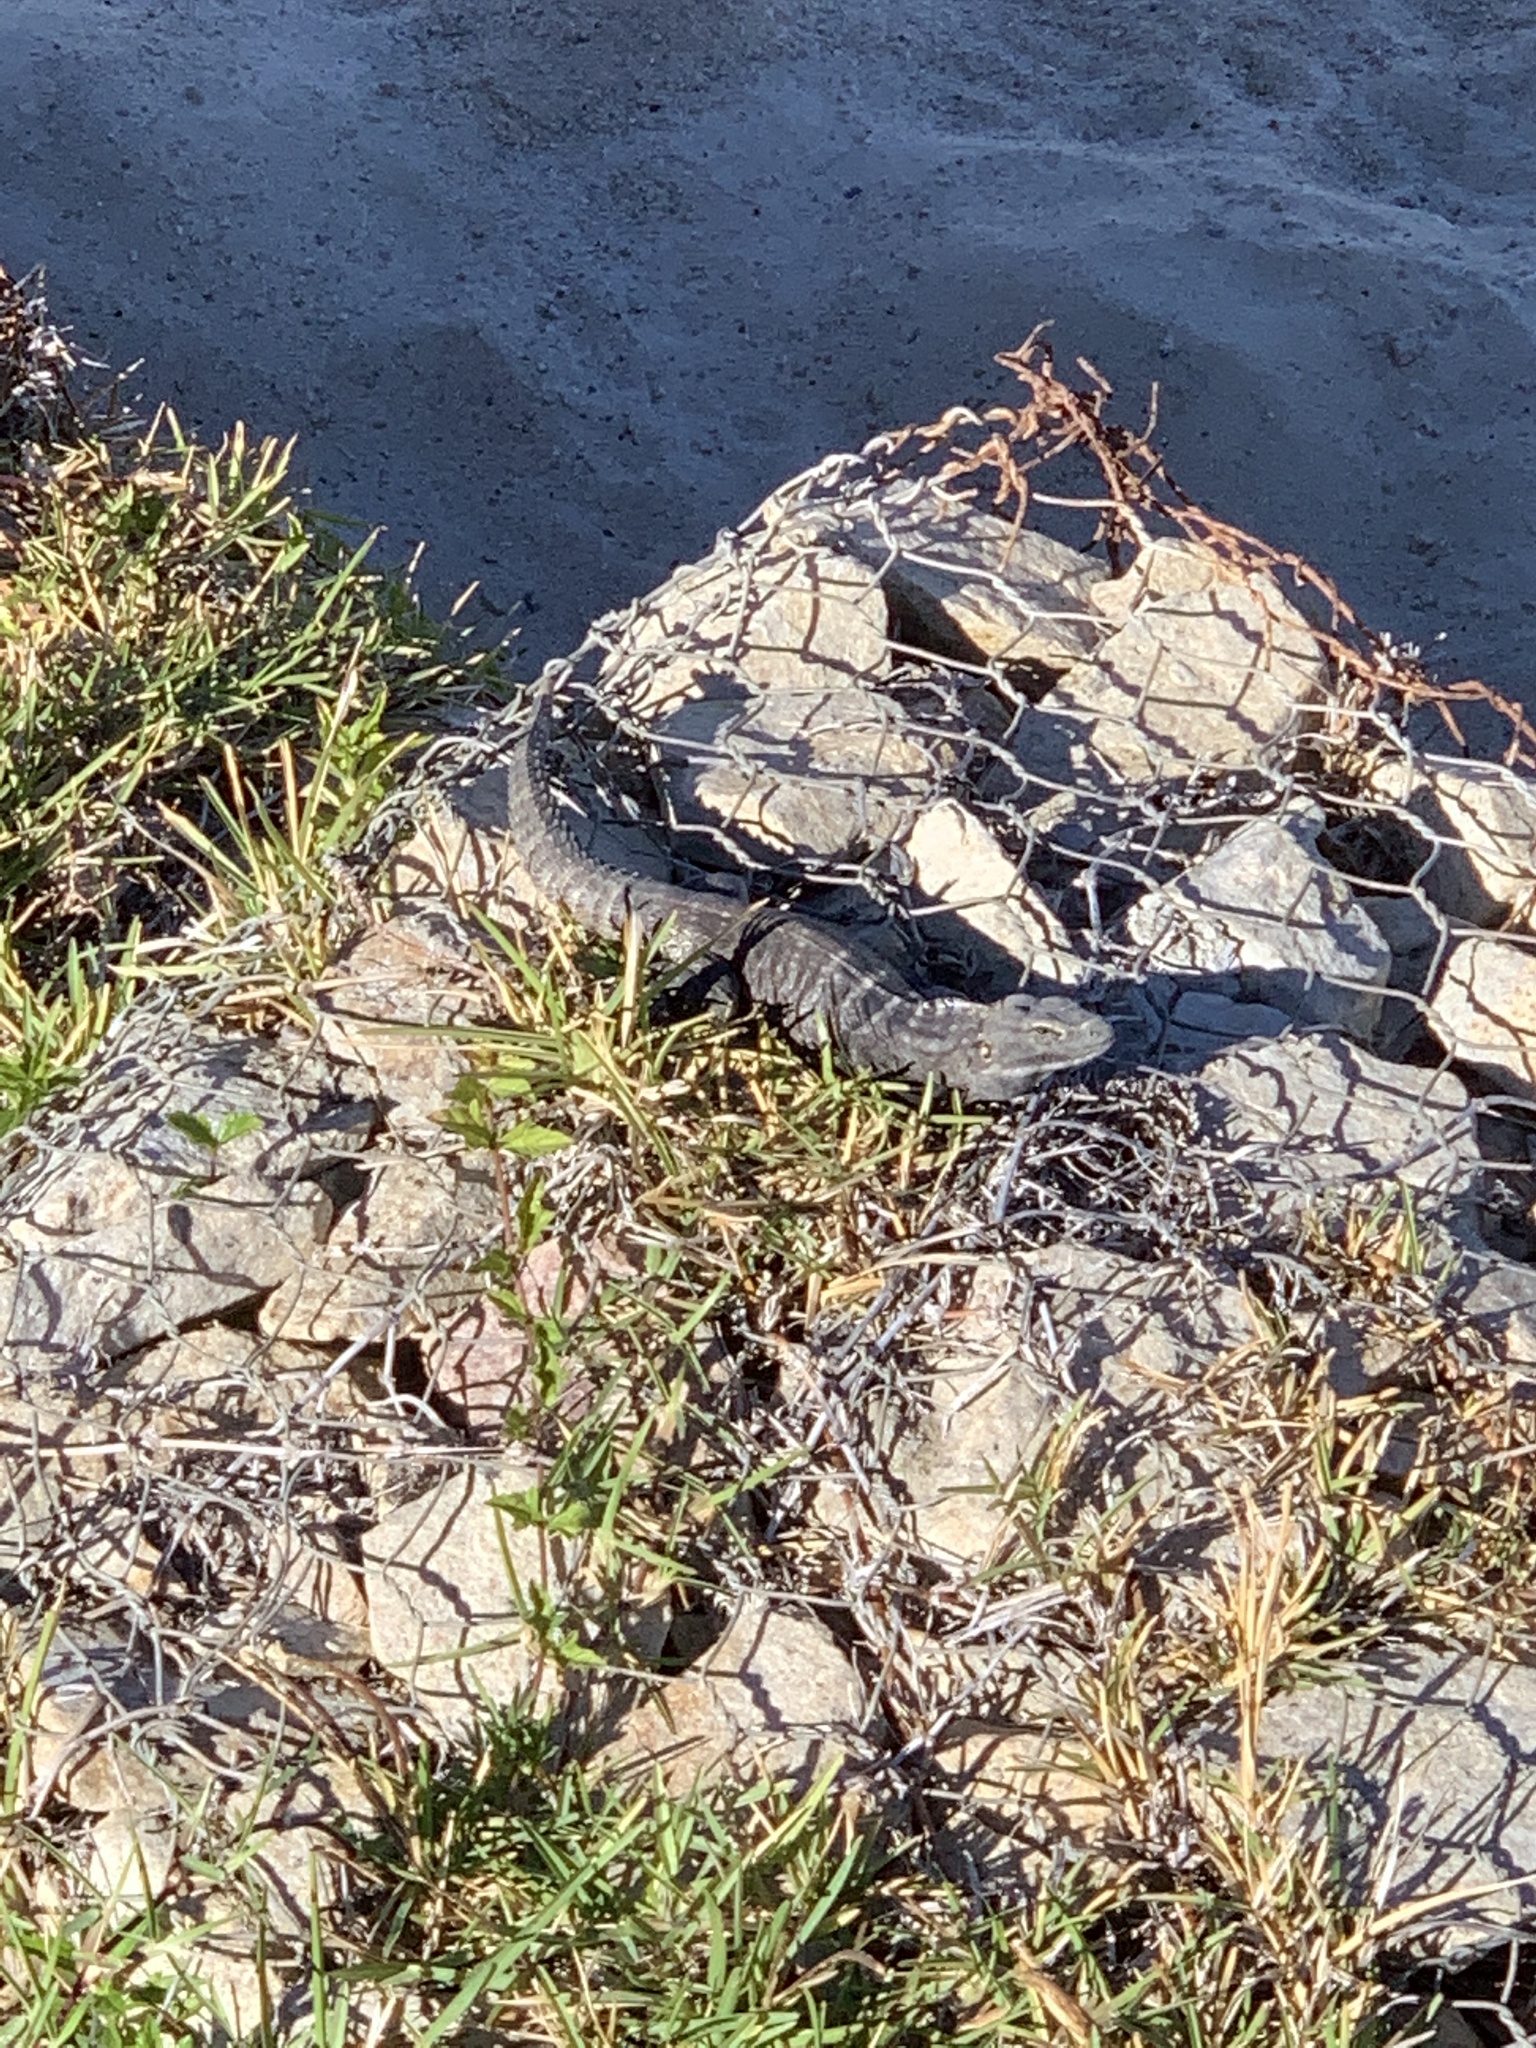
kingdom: Animalia
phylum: Chordata
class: Squamata
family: Iguanidae
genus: Ctenosaura
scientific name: Ctenosaura hemilopha
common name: Baja california spiny- tailed iguana
